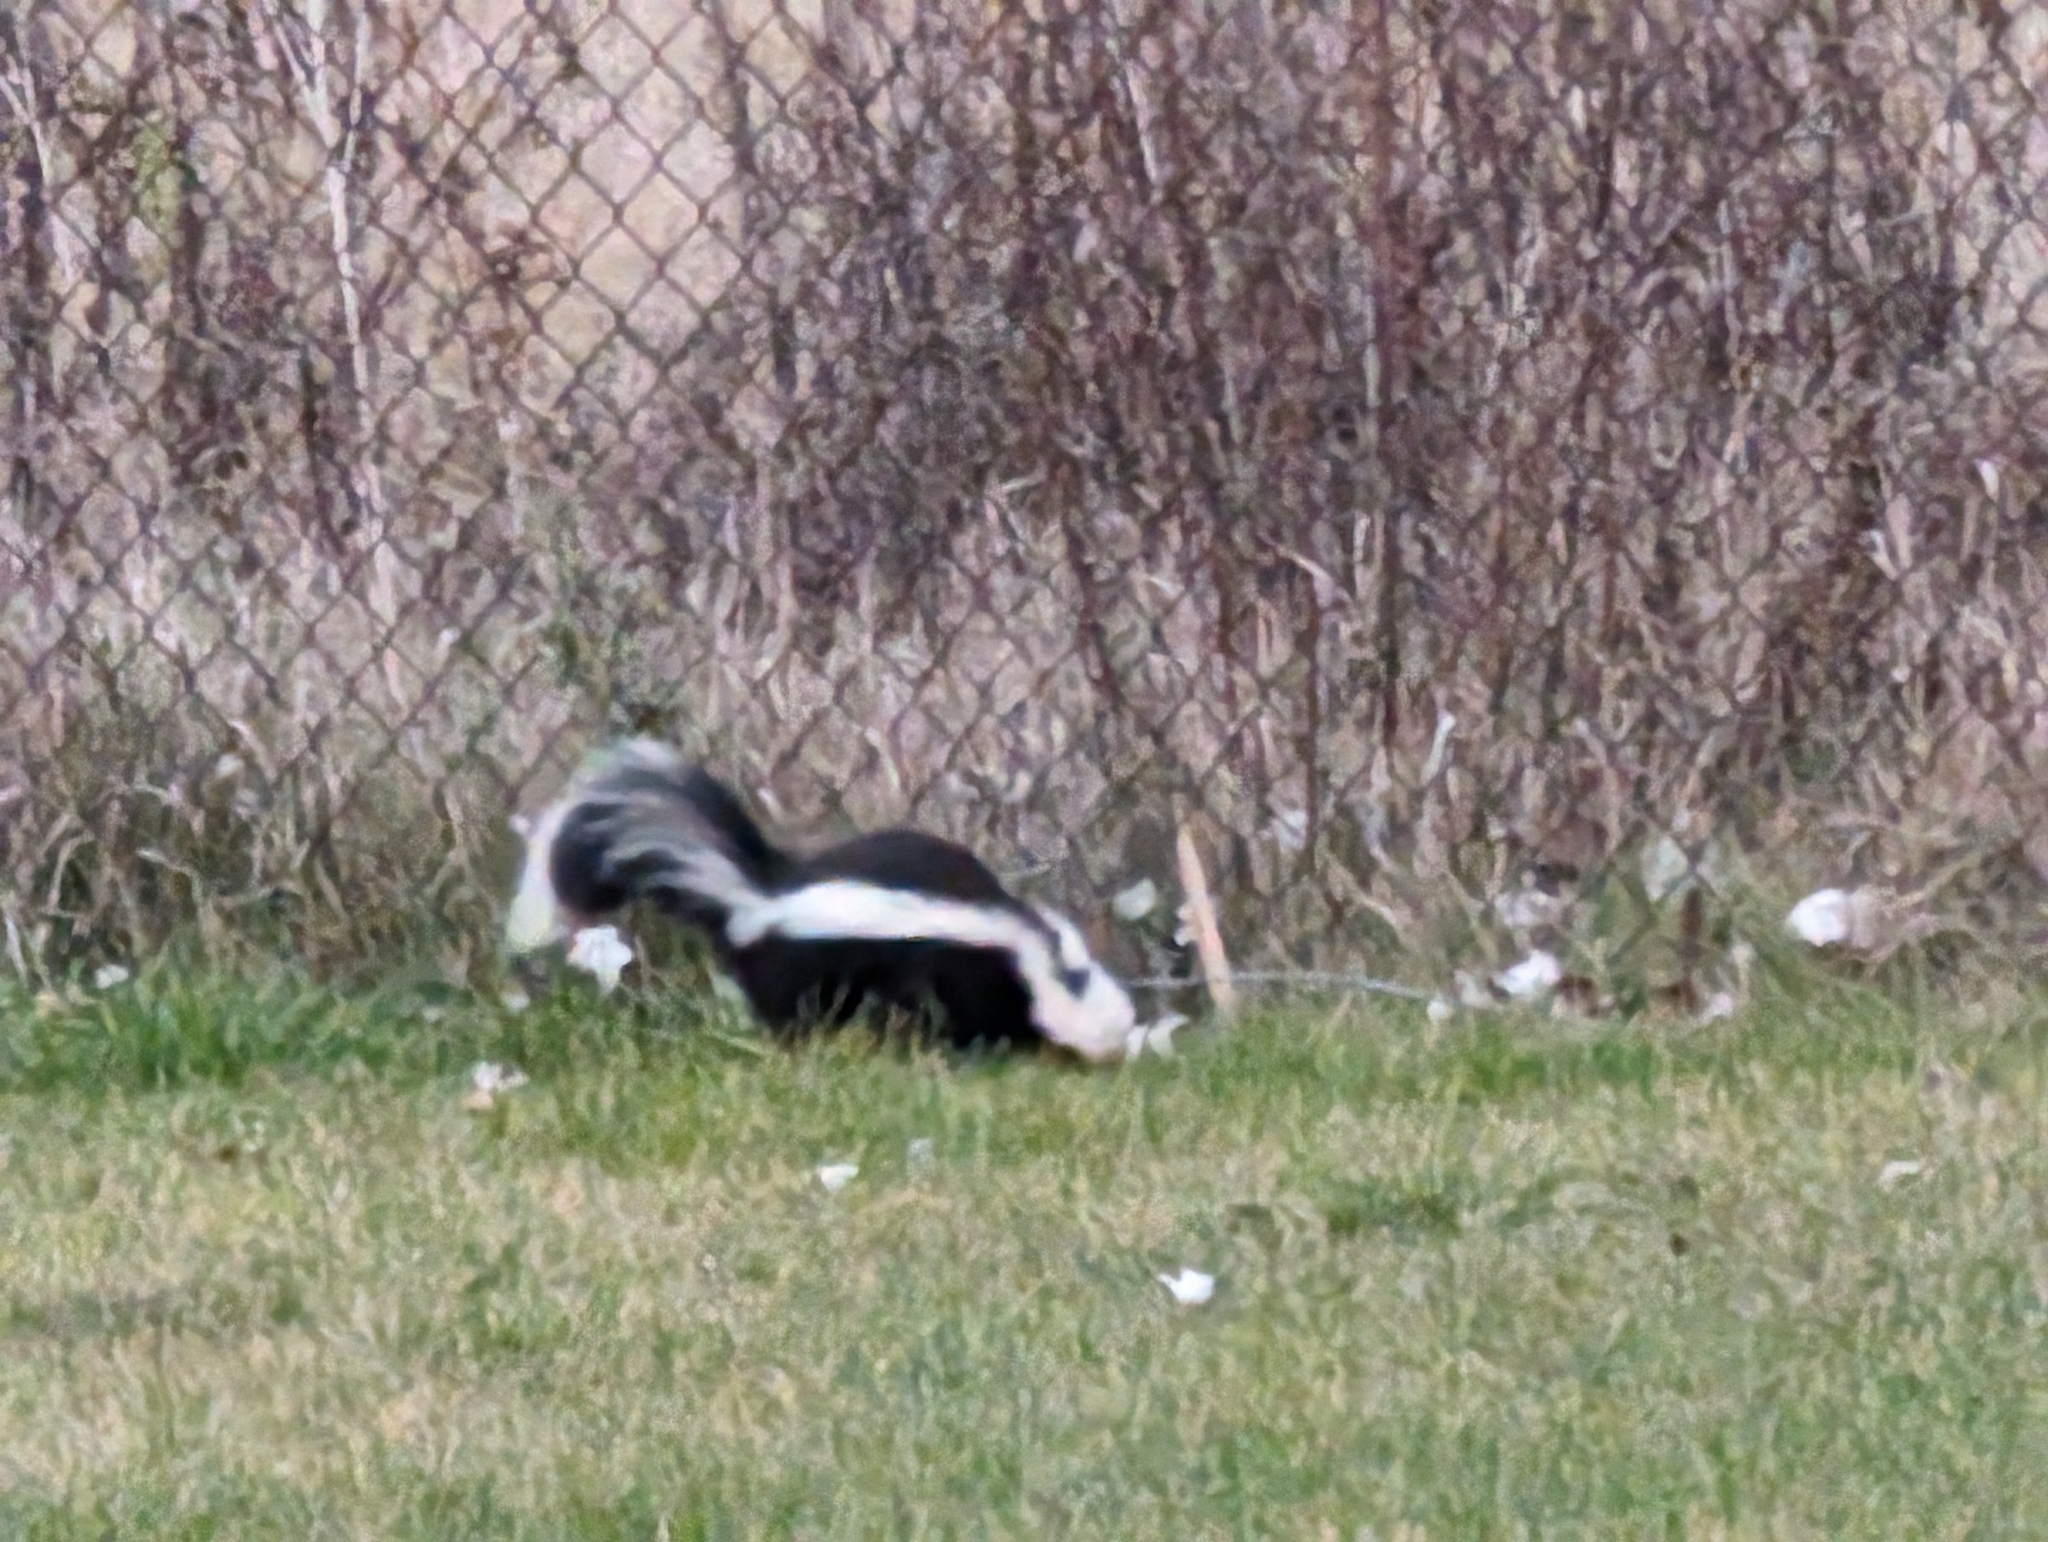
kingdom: Animalia
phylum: Chordata
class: Mammalia
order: Carnivora
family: Mephitidae
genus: Mephitis
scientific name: Mephitis mephitis
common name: Striped skunk
